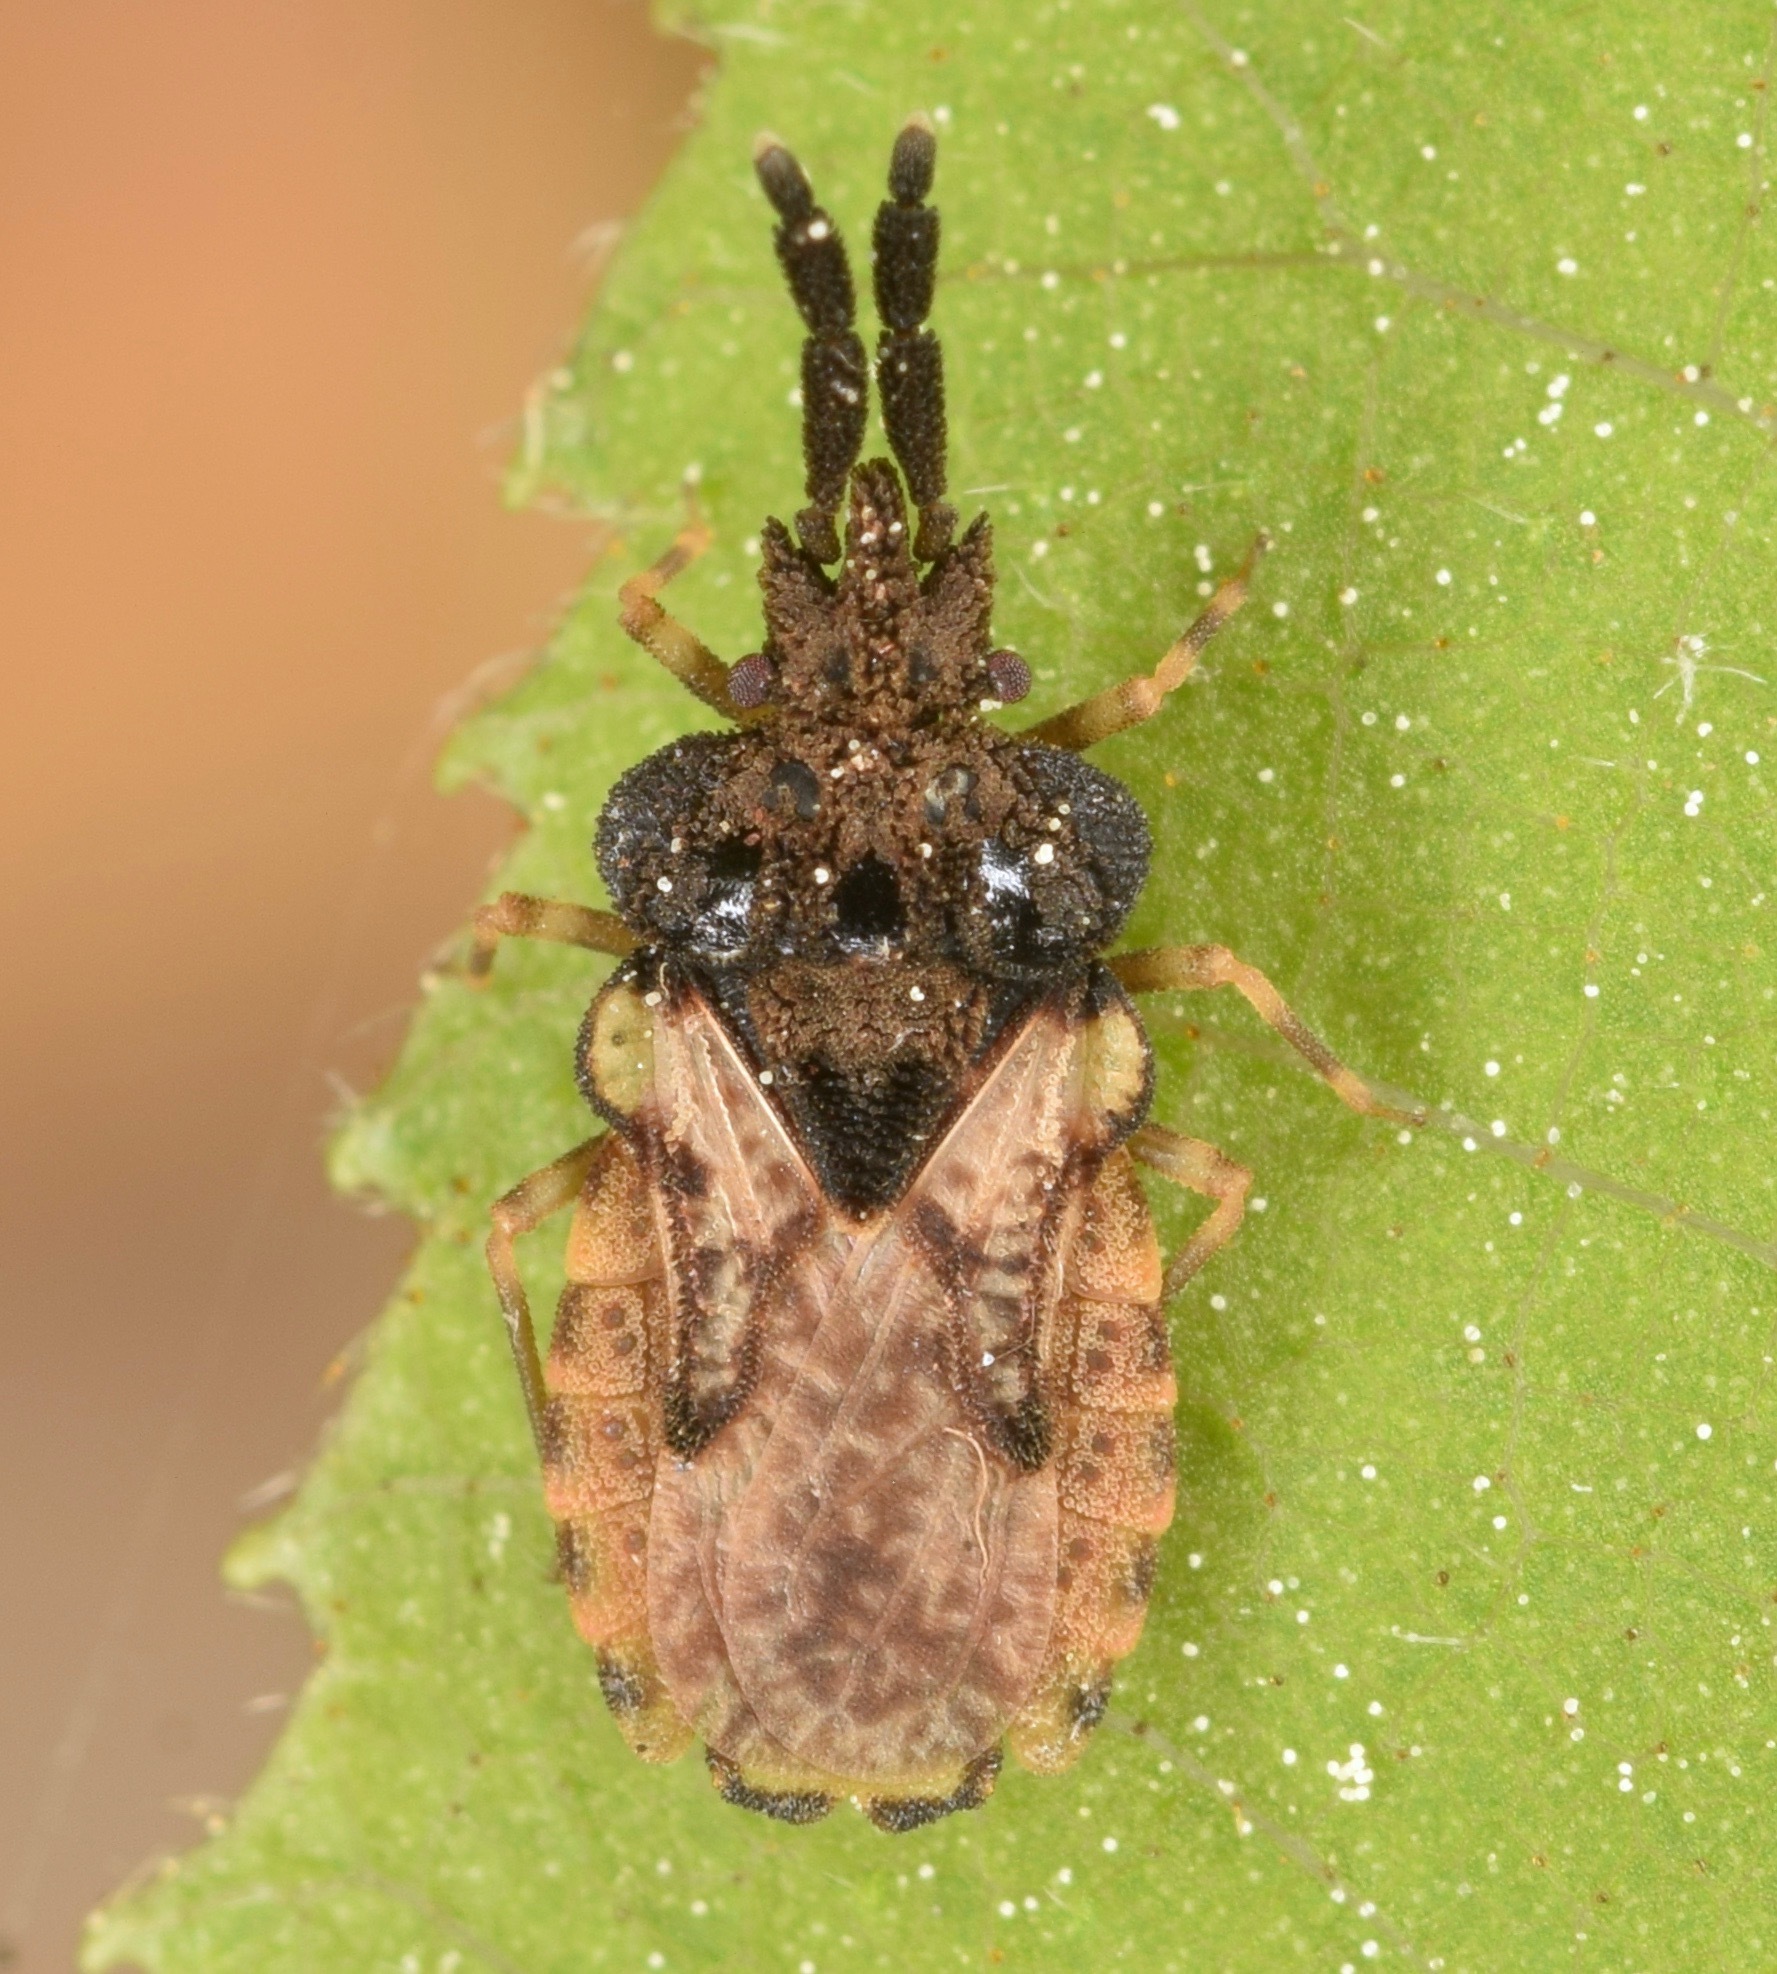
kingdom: Animalia
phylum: Arthropoda
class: Insecta
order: Hemiptera
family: Aradidae
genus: Aradus
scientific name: Aradus ornatus
